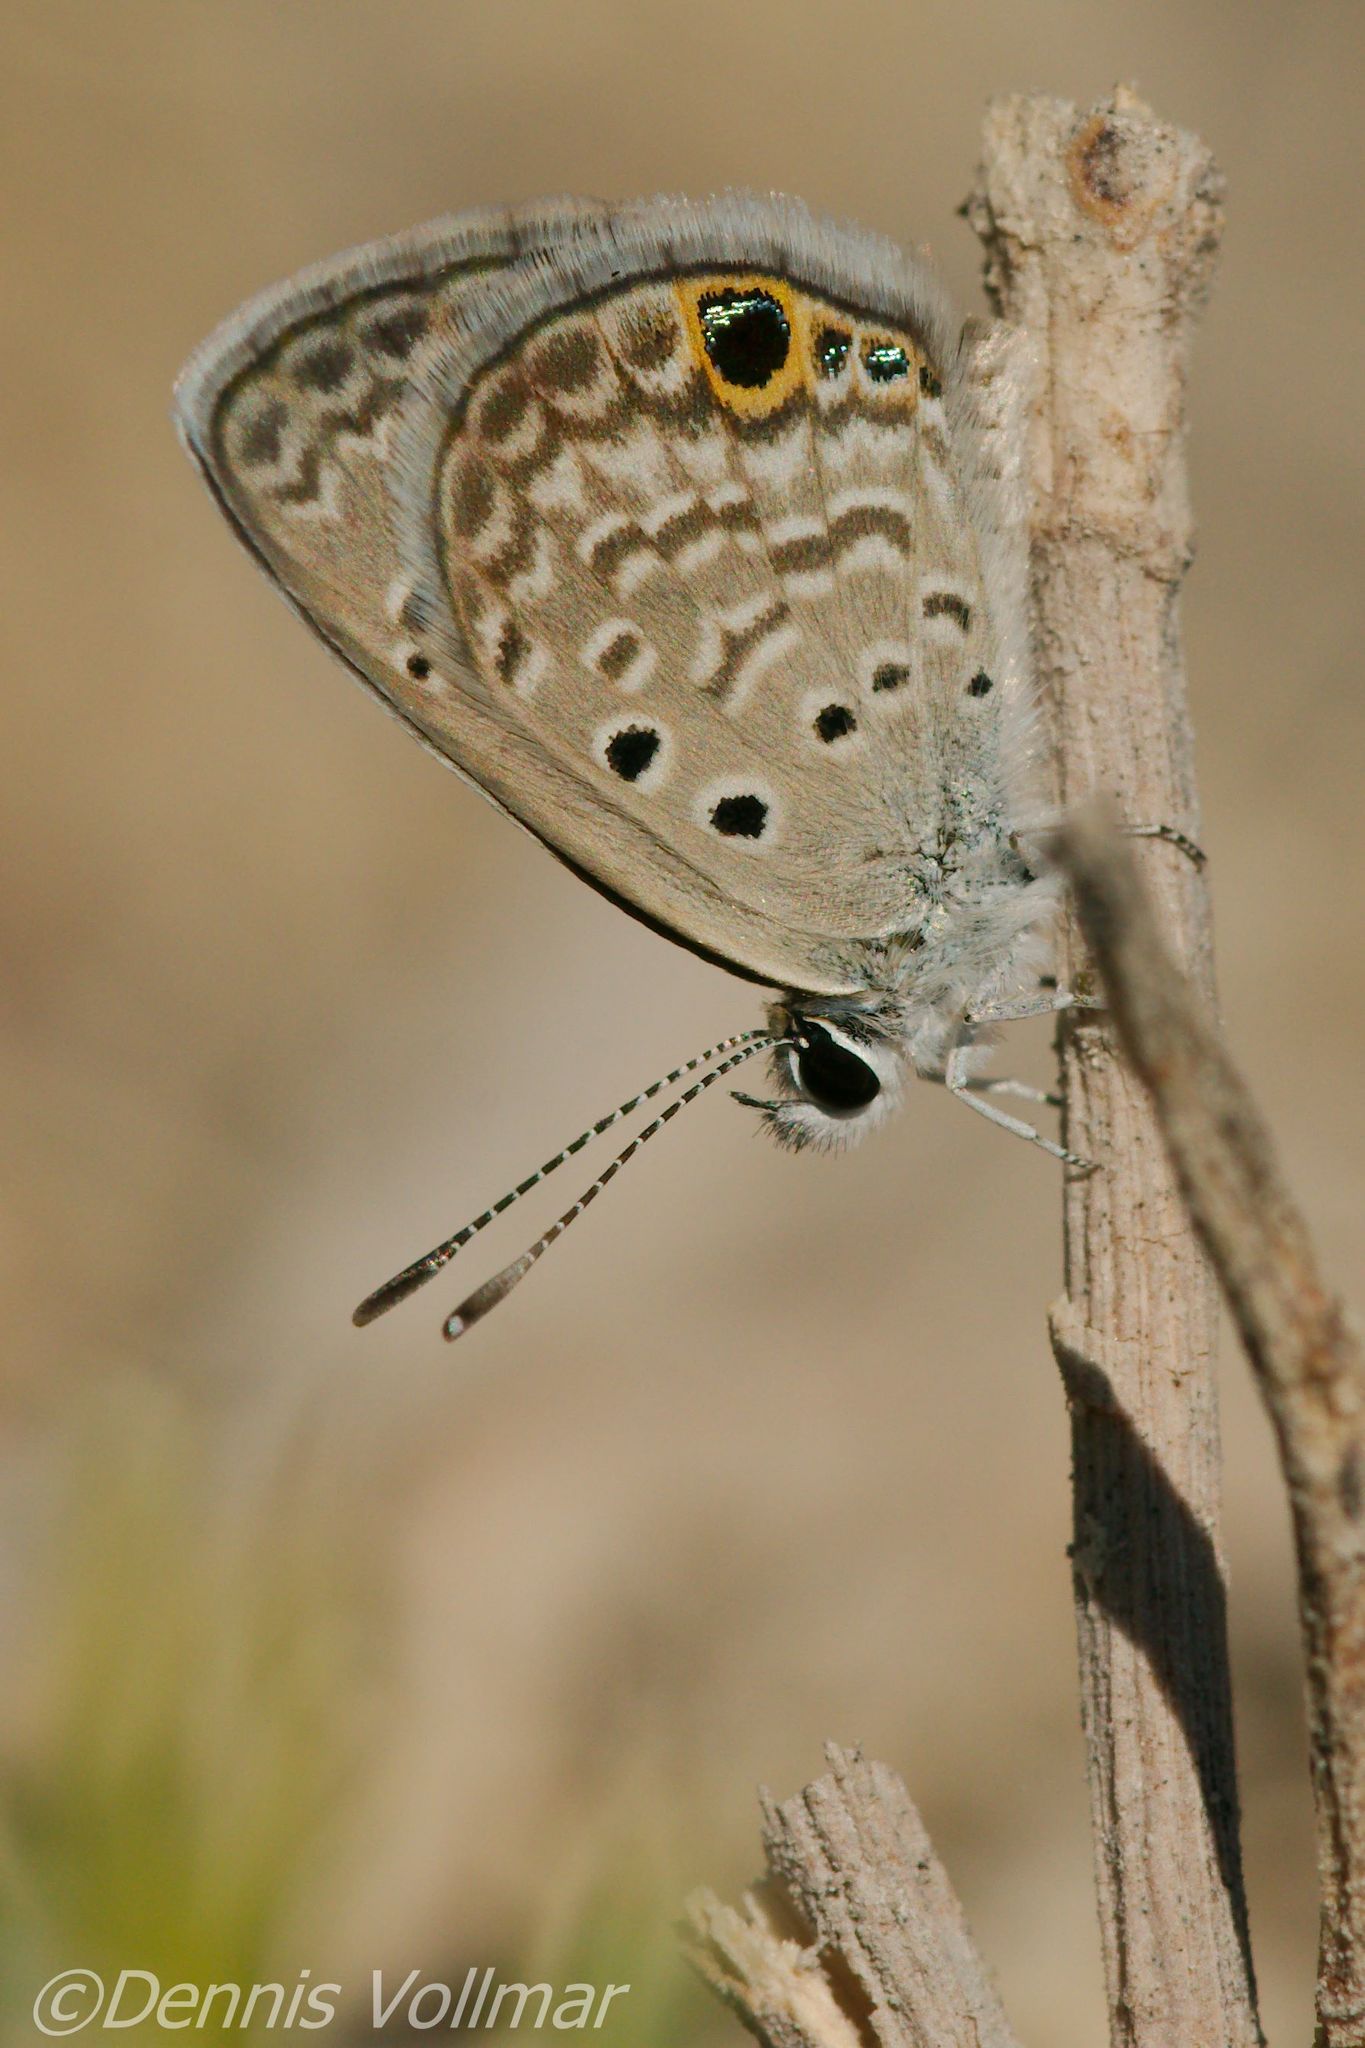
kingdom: Animalia
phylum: Arthropoda
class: Insecta
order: Lepidoptera
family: Lycaenidae
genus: Hemiargus
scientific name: Hemiargus ceraunus
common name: Ceraunus blue
